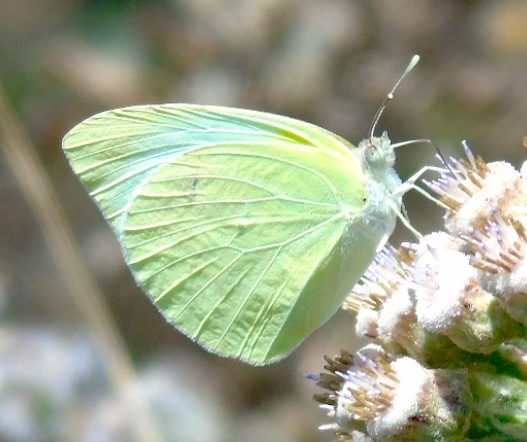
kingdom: Animalia
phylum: Arthropoda
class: Insecta
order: Lepidoptera
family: Pieridae
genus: Kricogonia
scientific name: Kricogonia lyside
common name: Guayacan sulphur,
